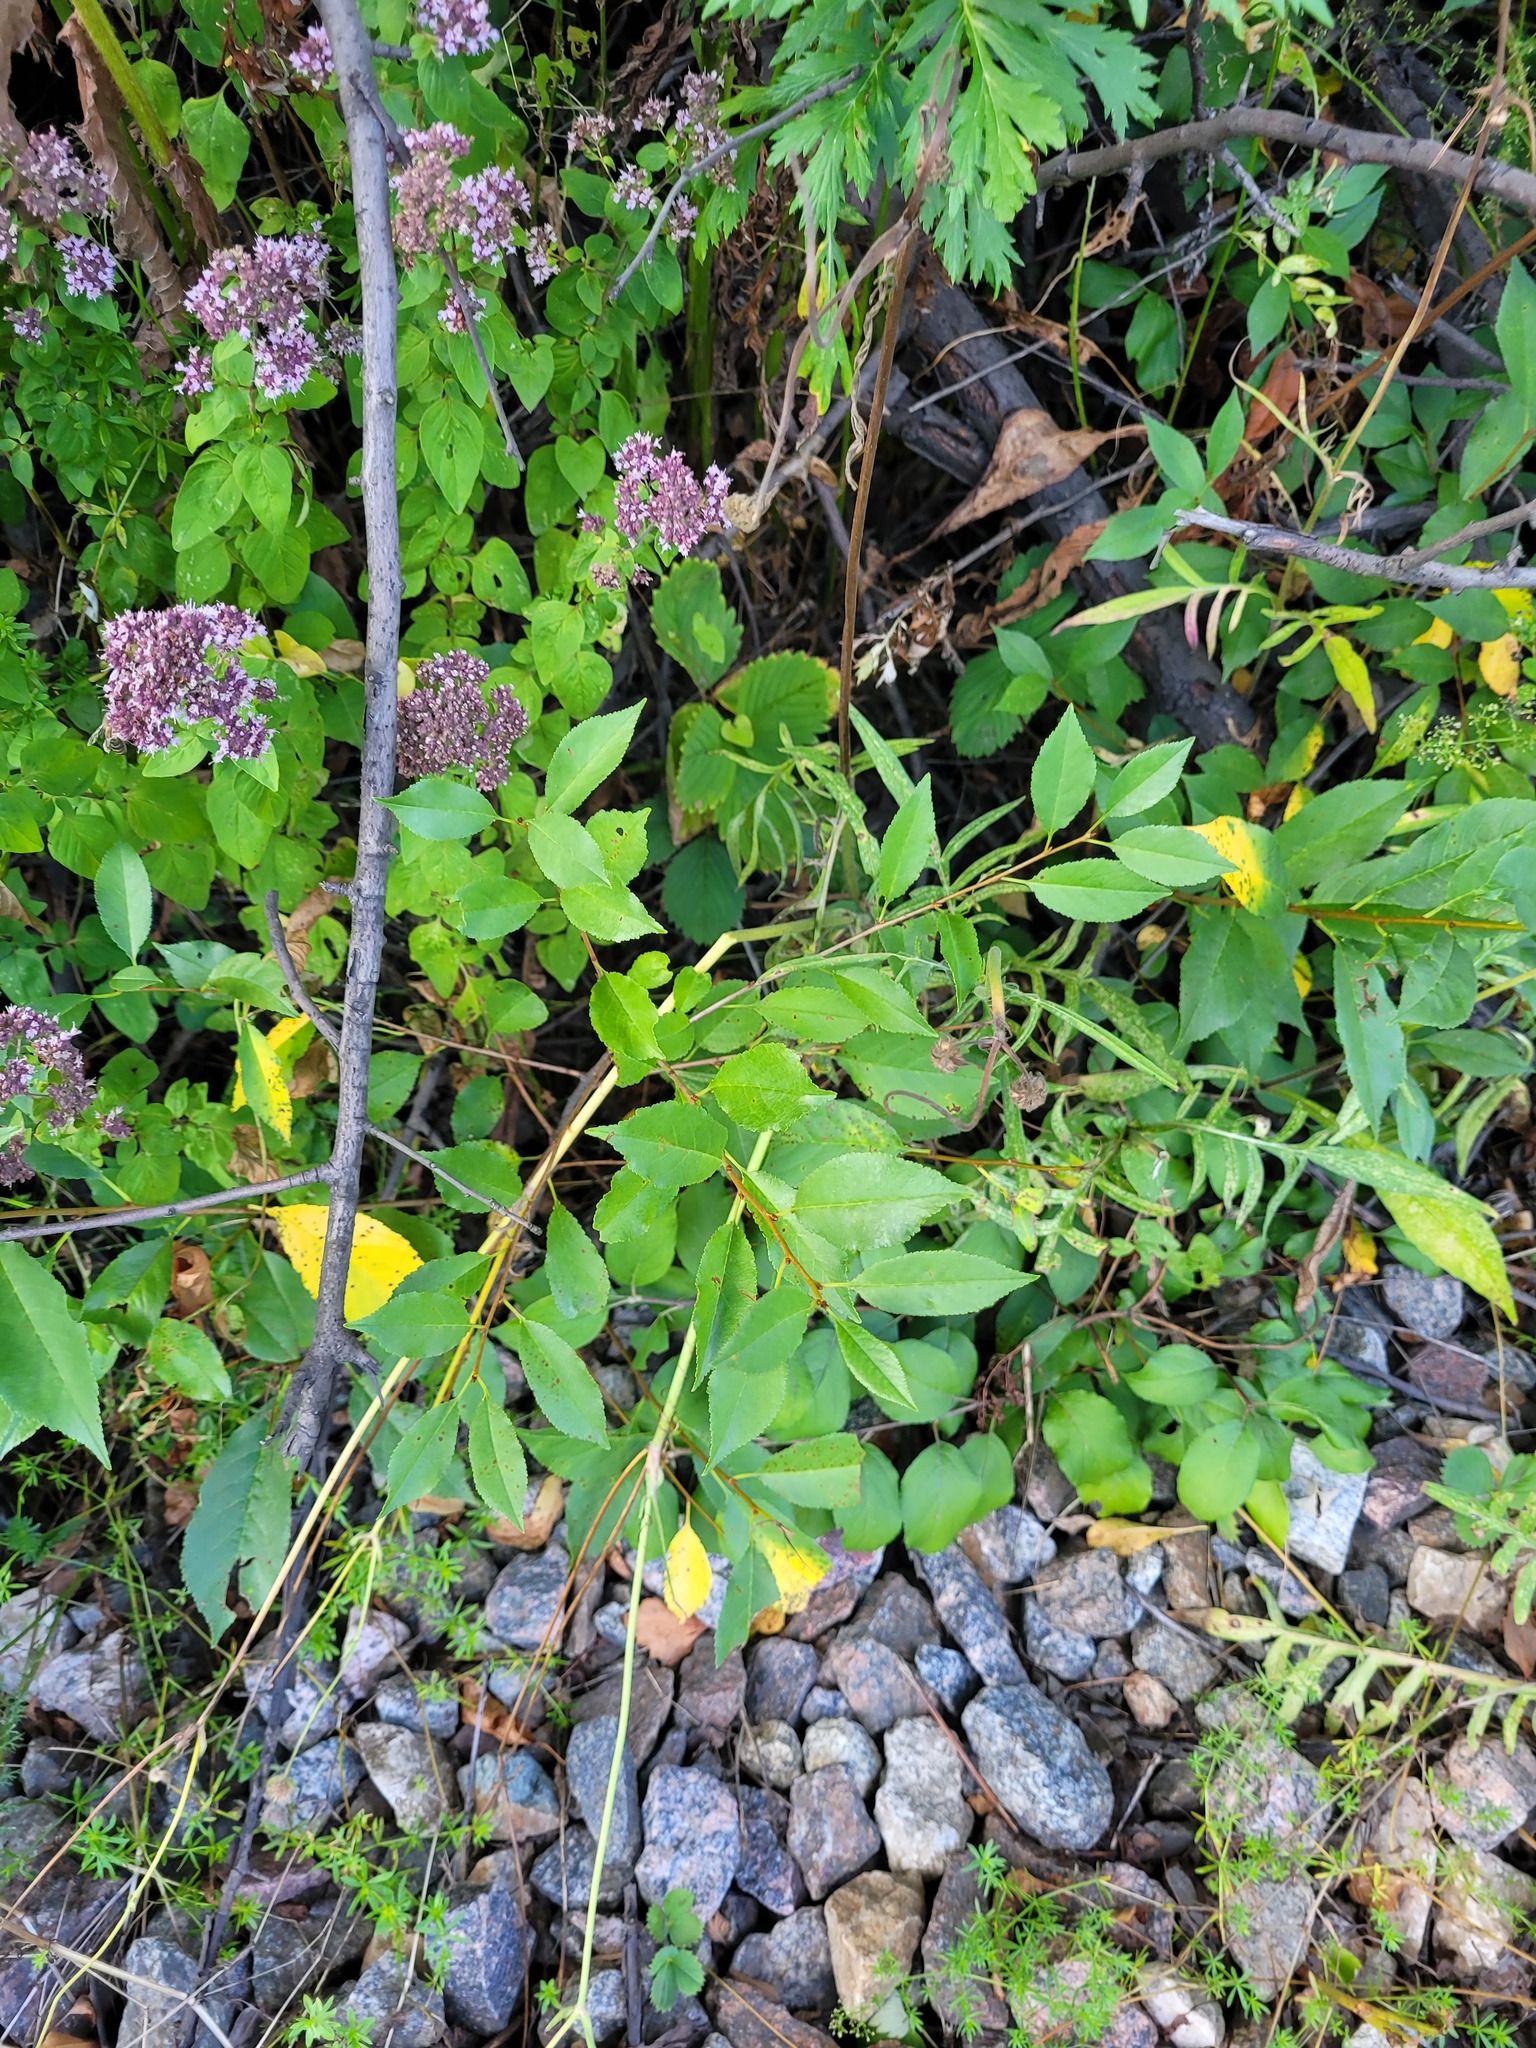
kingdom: Plantae
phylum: Tracheophyta
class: Magnoliopsida
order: Rosales
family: Rosaceae
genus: Prunus
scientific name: Prunus cerasus
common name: Morello cherry
